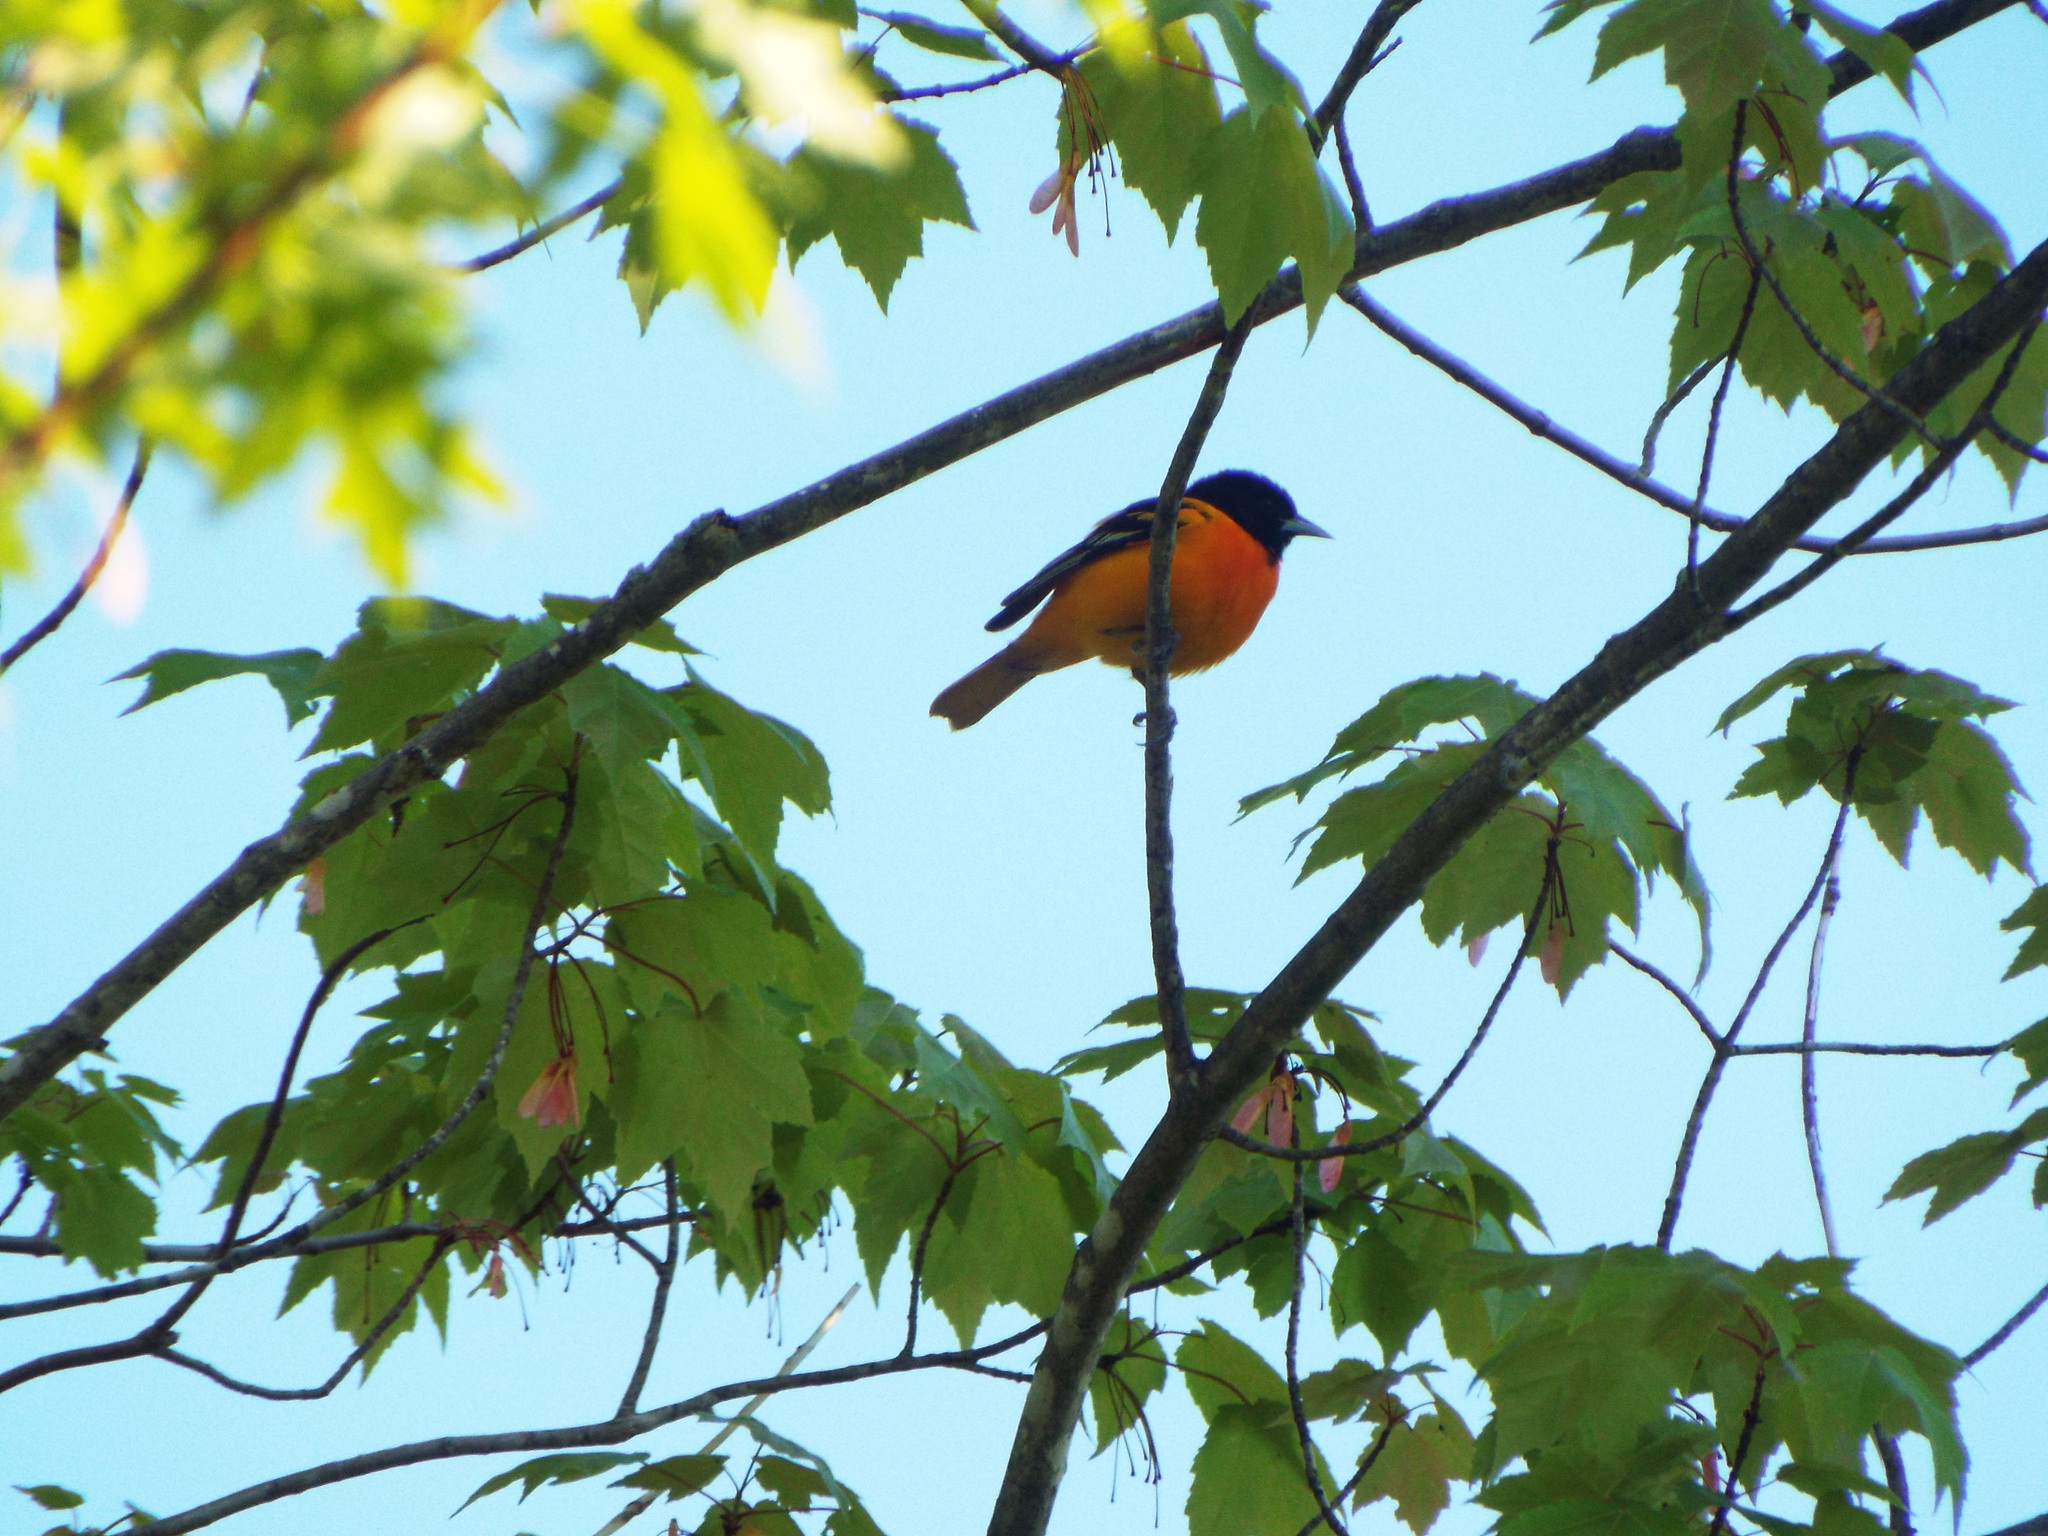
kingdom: Animalia
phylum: Chordata
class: Aves
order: Passeriformes
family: Icteridae
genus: Icterus
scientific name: Icterus galbula
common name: Baltimore oriole
